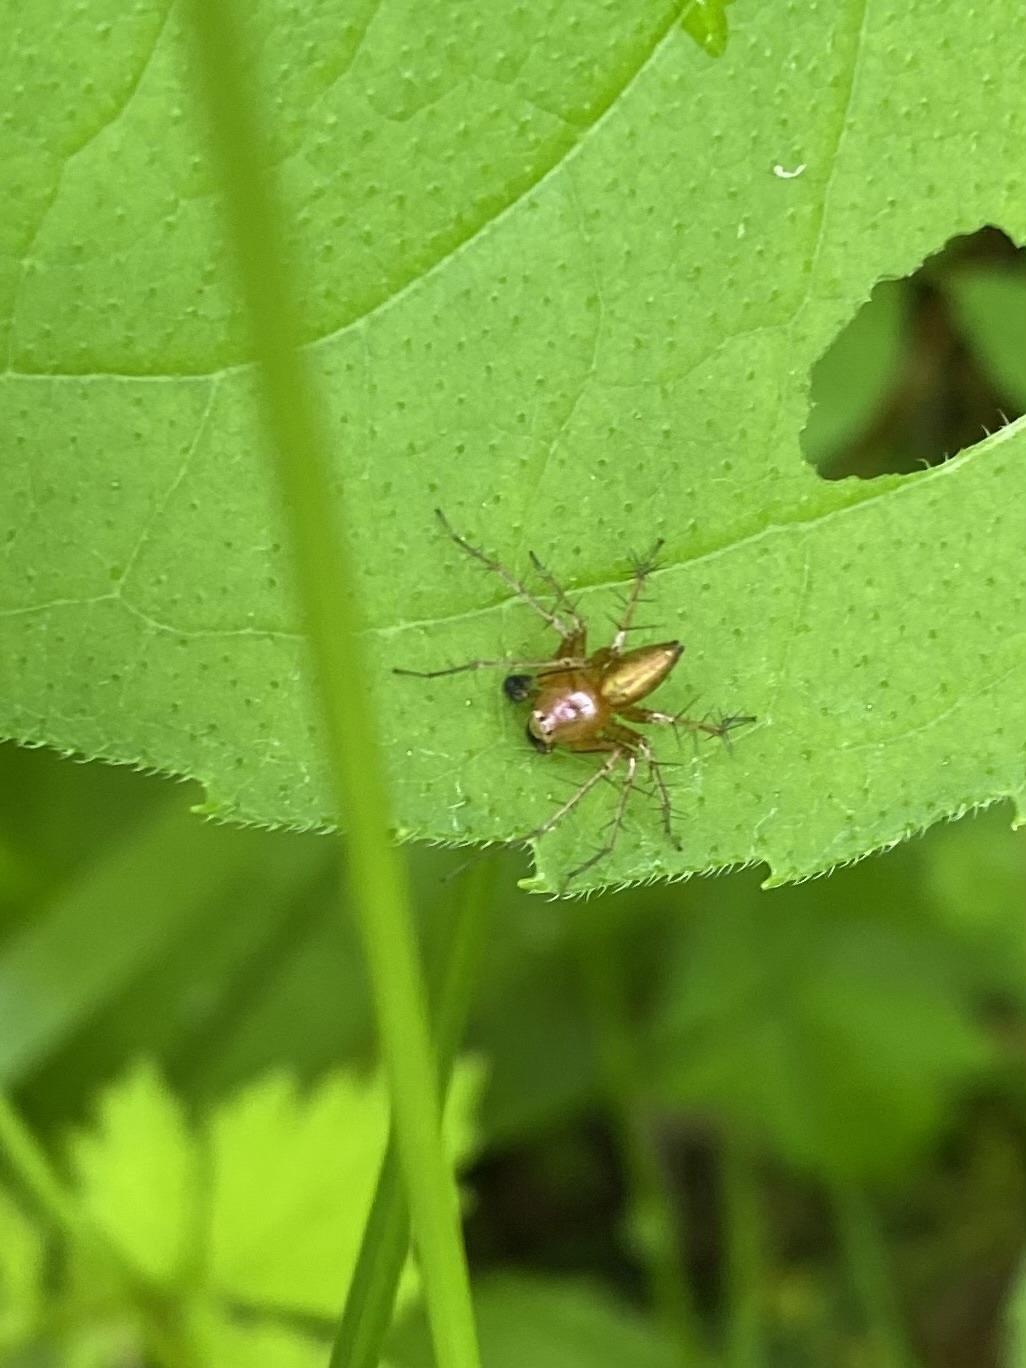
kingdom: Animalia
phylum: Arthropoda
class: Arachnida
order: Araneae
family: Oxyopidae
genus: Oxyopes
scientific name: Oxyopes salticus
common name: Lynx spiders
